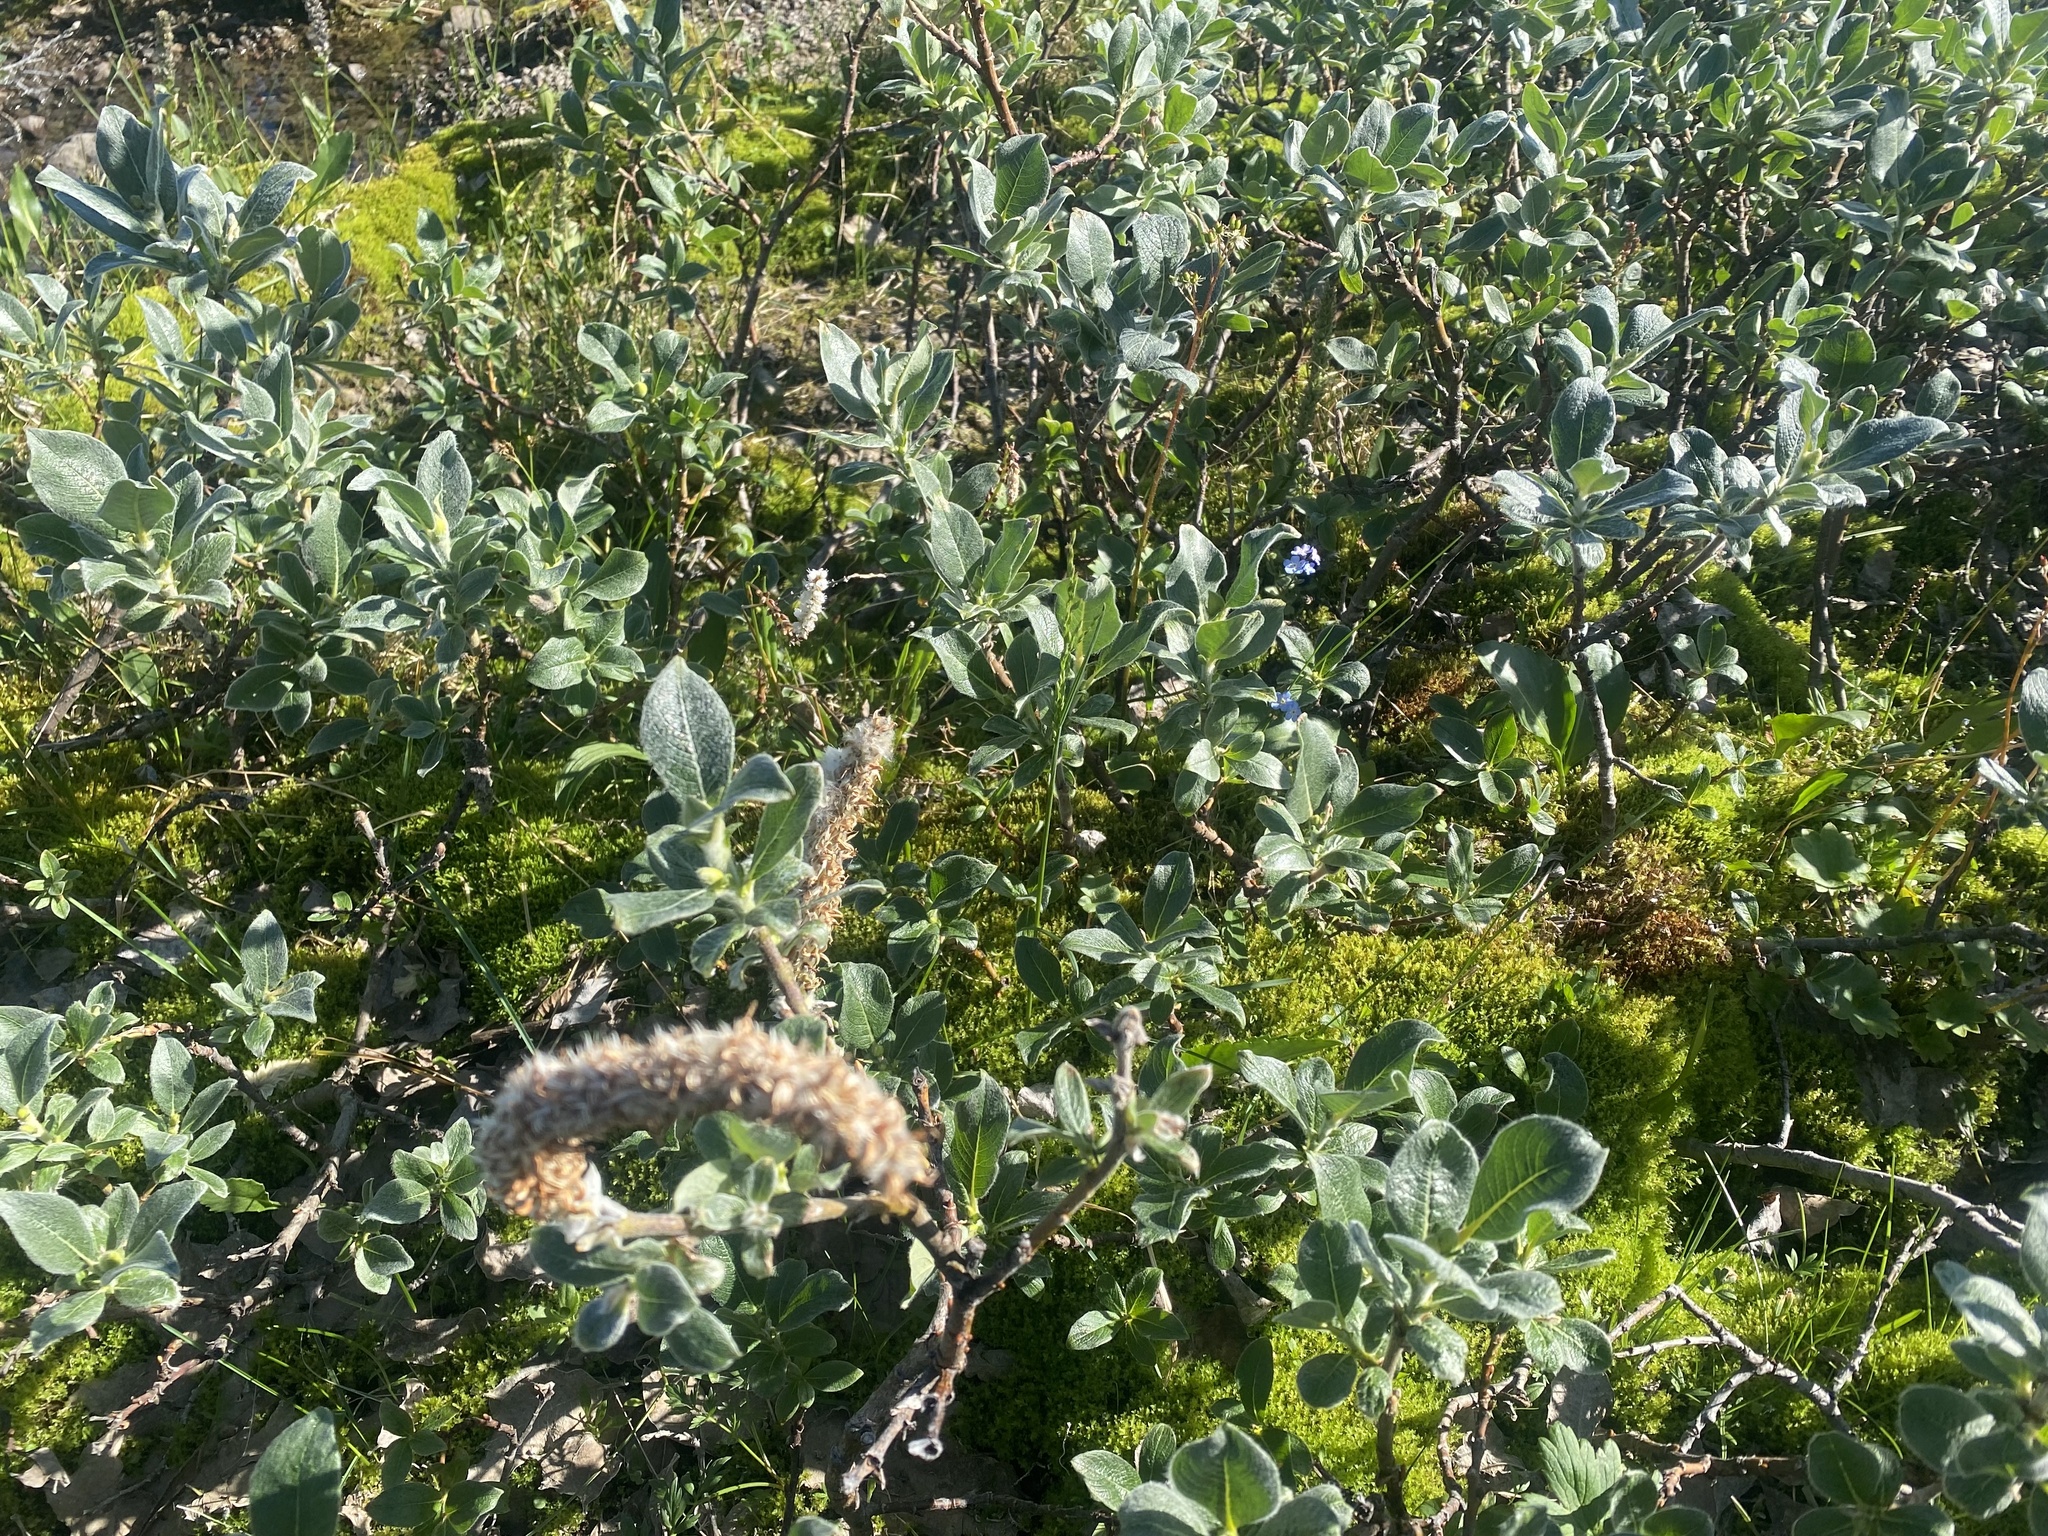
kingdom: Plantae
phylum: Tracheophyta
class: Magnoliopsida
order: Malpighiales
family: Salicaceae
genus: Salix
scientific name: Salix lanata
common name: Woolly willow
